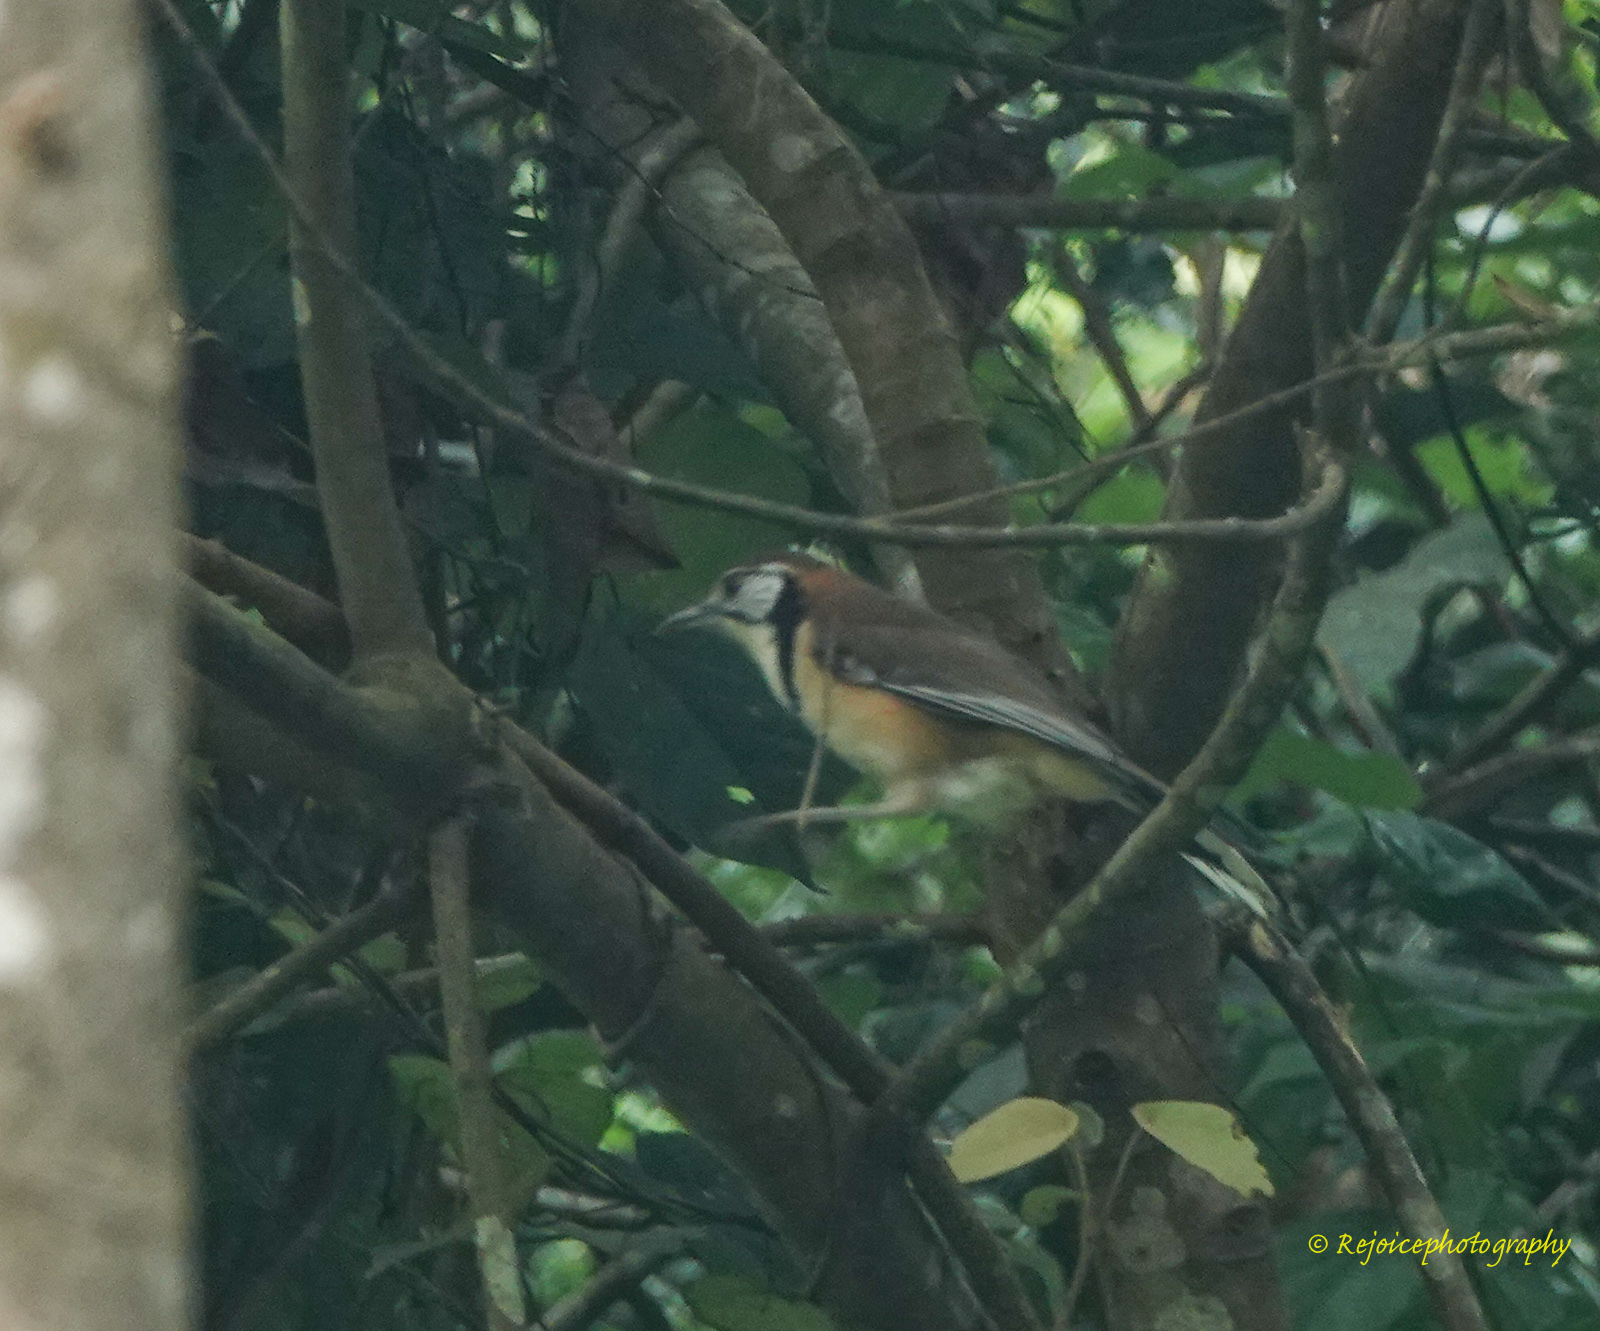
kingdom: Animalia
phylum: Chordata
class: Aves
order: Passeriformes
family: Leiothrichidae
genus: Garrulax
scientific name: Garrulax monileger
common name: Lesser necklaced laughingthrush
